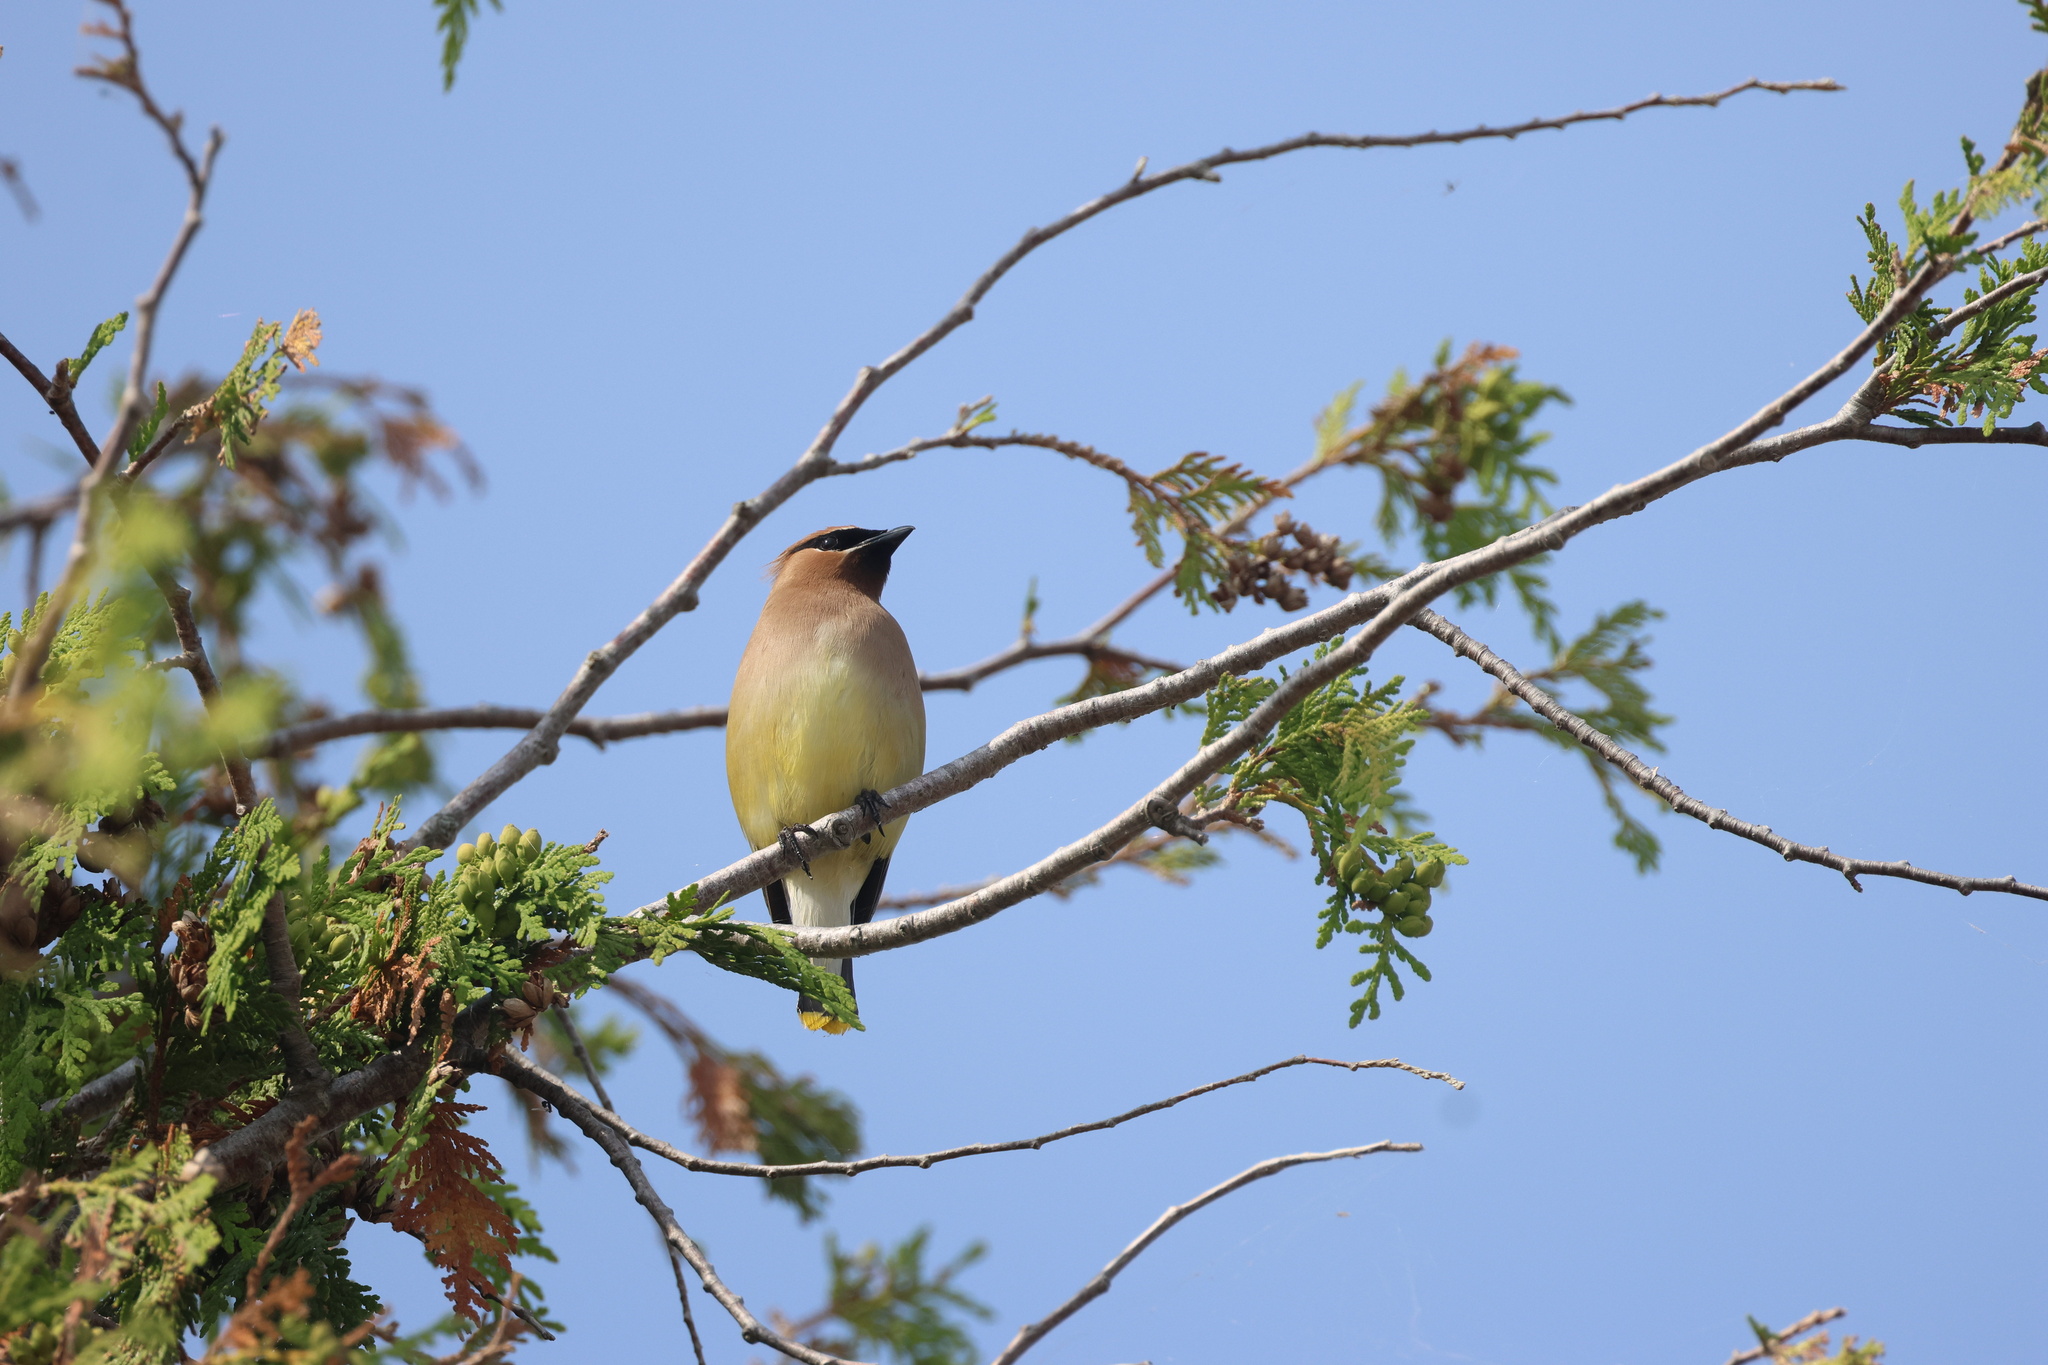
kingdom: Animalia
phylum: Chordata
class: Aves
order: Passeriformes
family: Bombycillidae
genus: Bombycilla
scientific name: Bombycilla cedrorum
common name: Cedar waxwing
